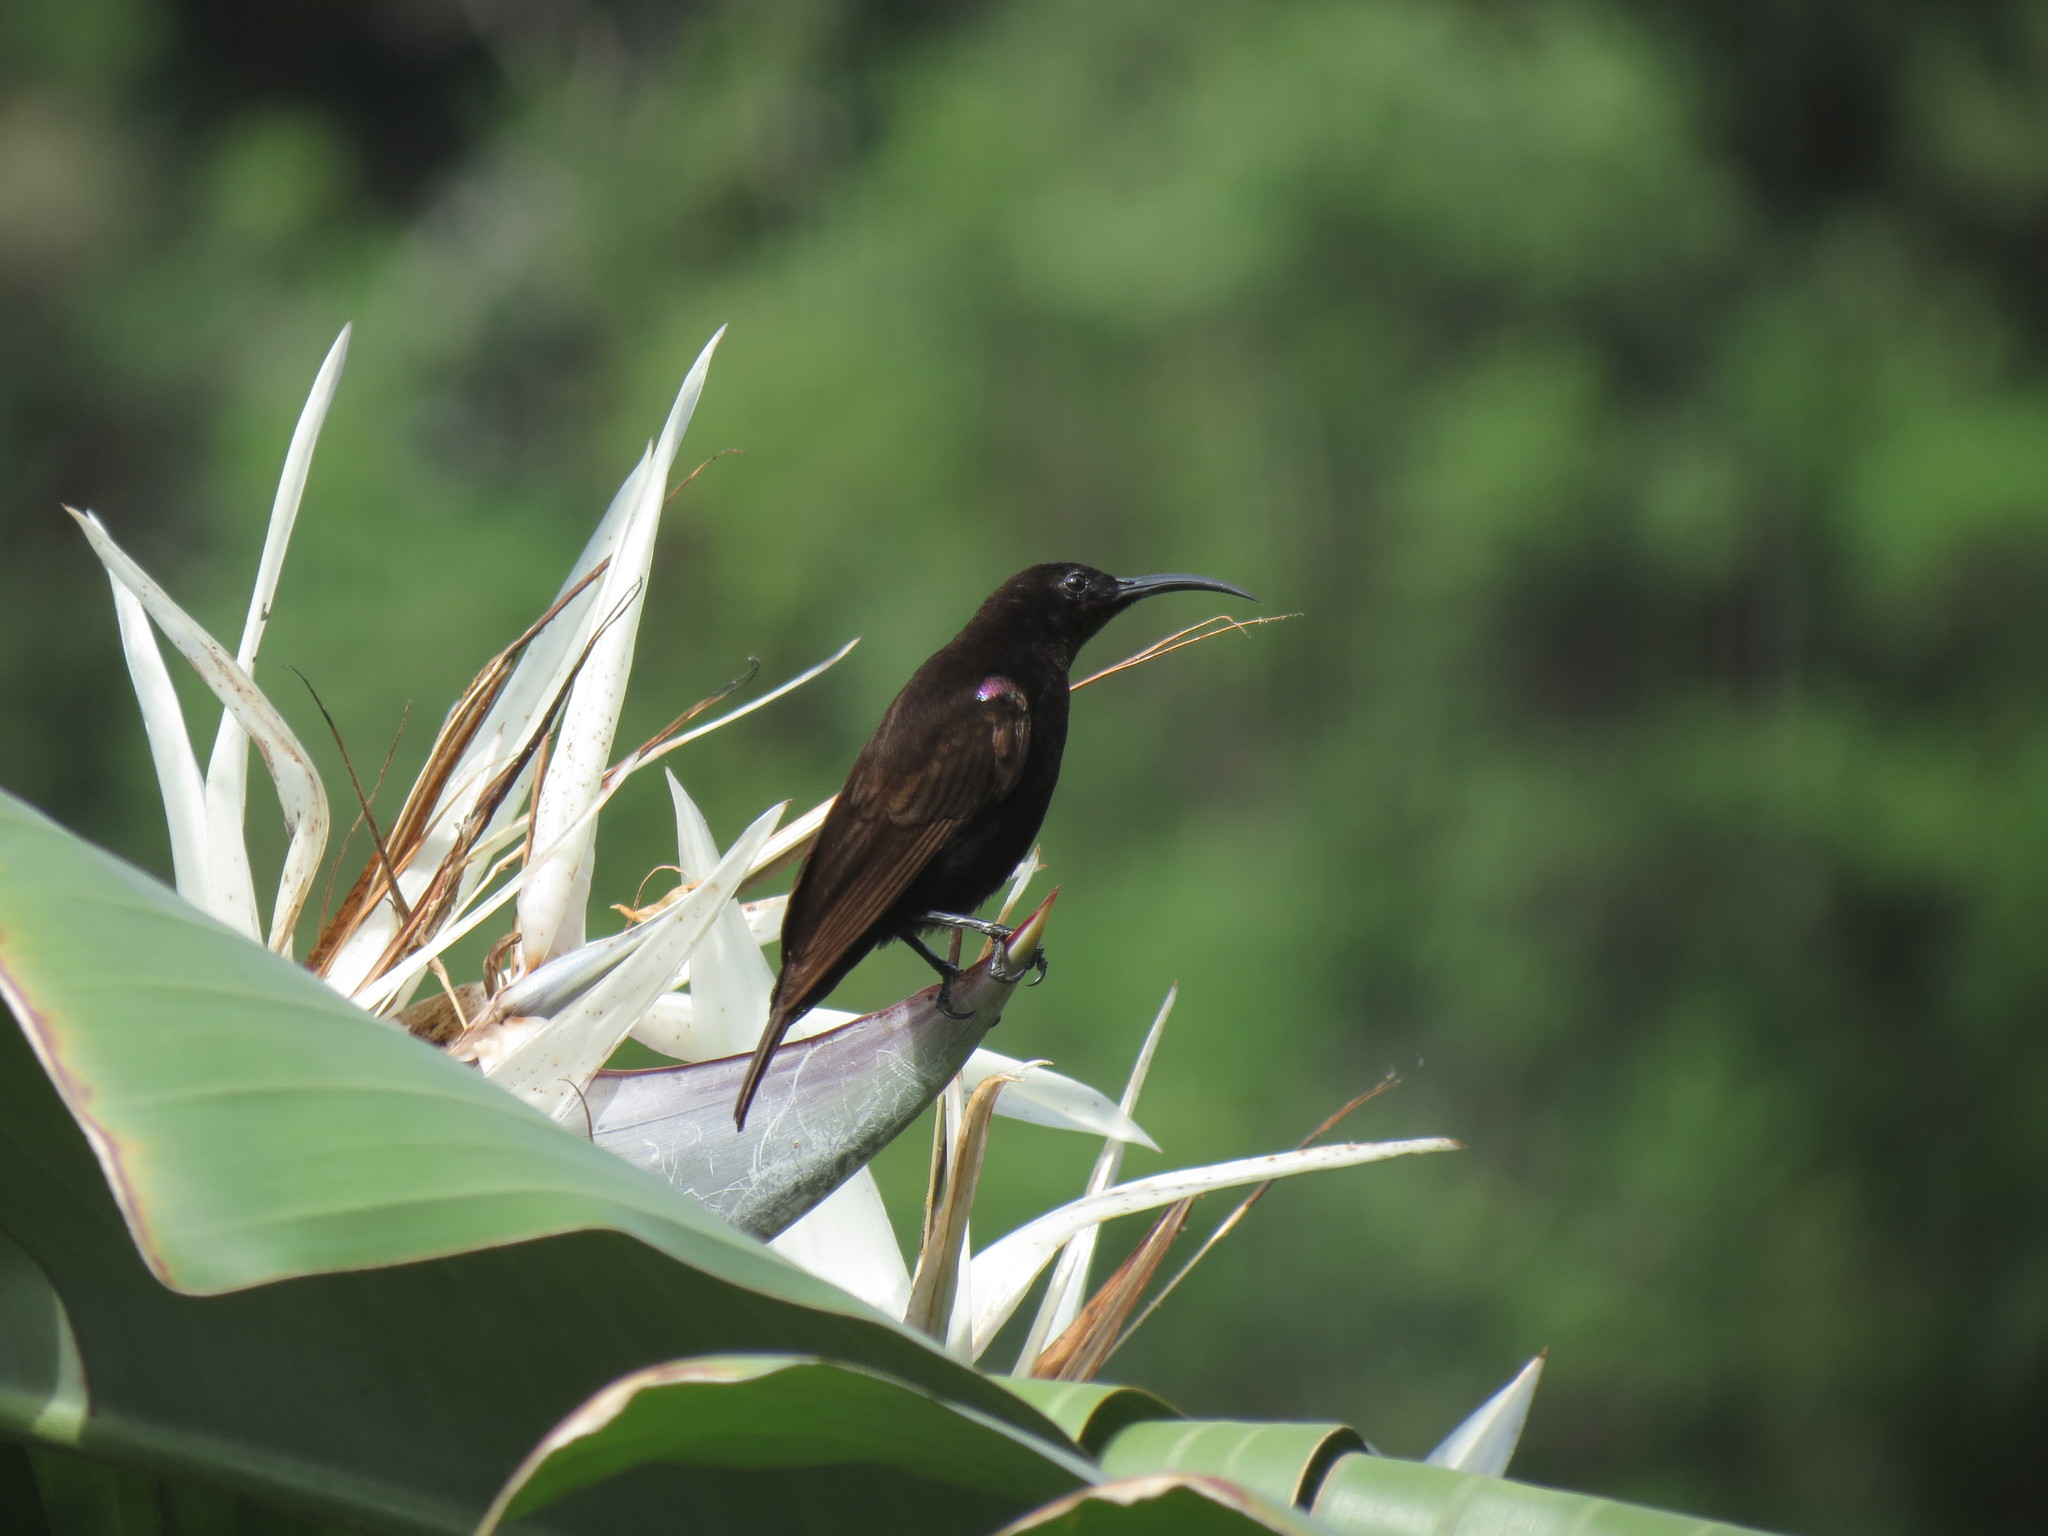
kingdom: Animalia
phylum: Chordata
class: Aves
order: Passeriformes
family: Nectariniidae
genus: Chalcomitra
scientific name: Chalcomitra amethystina
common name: Amethyst sunbird
